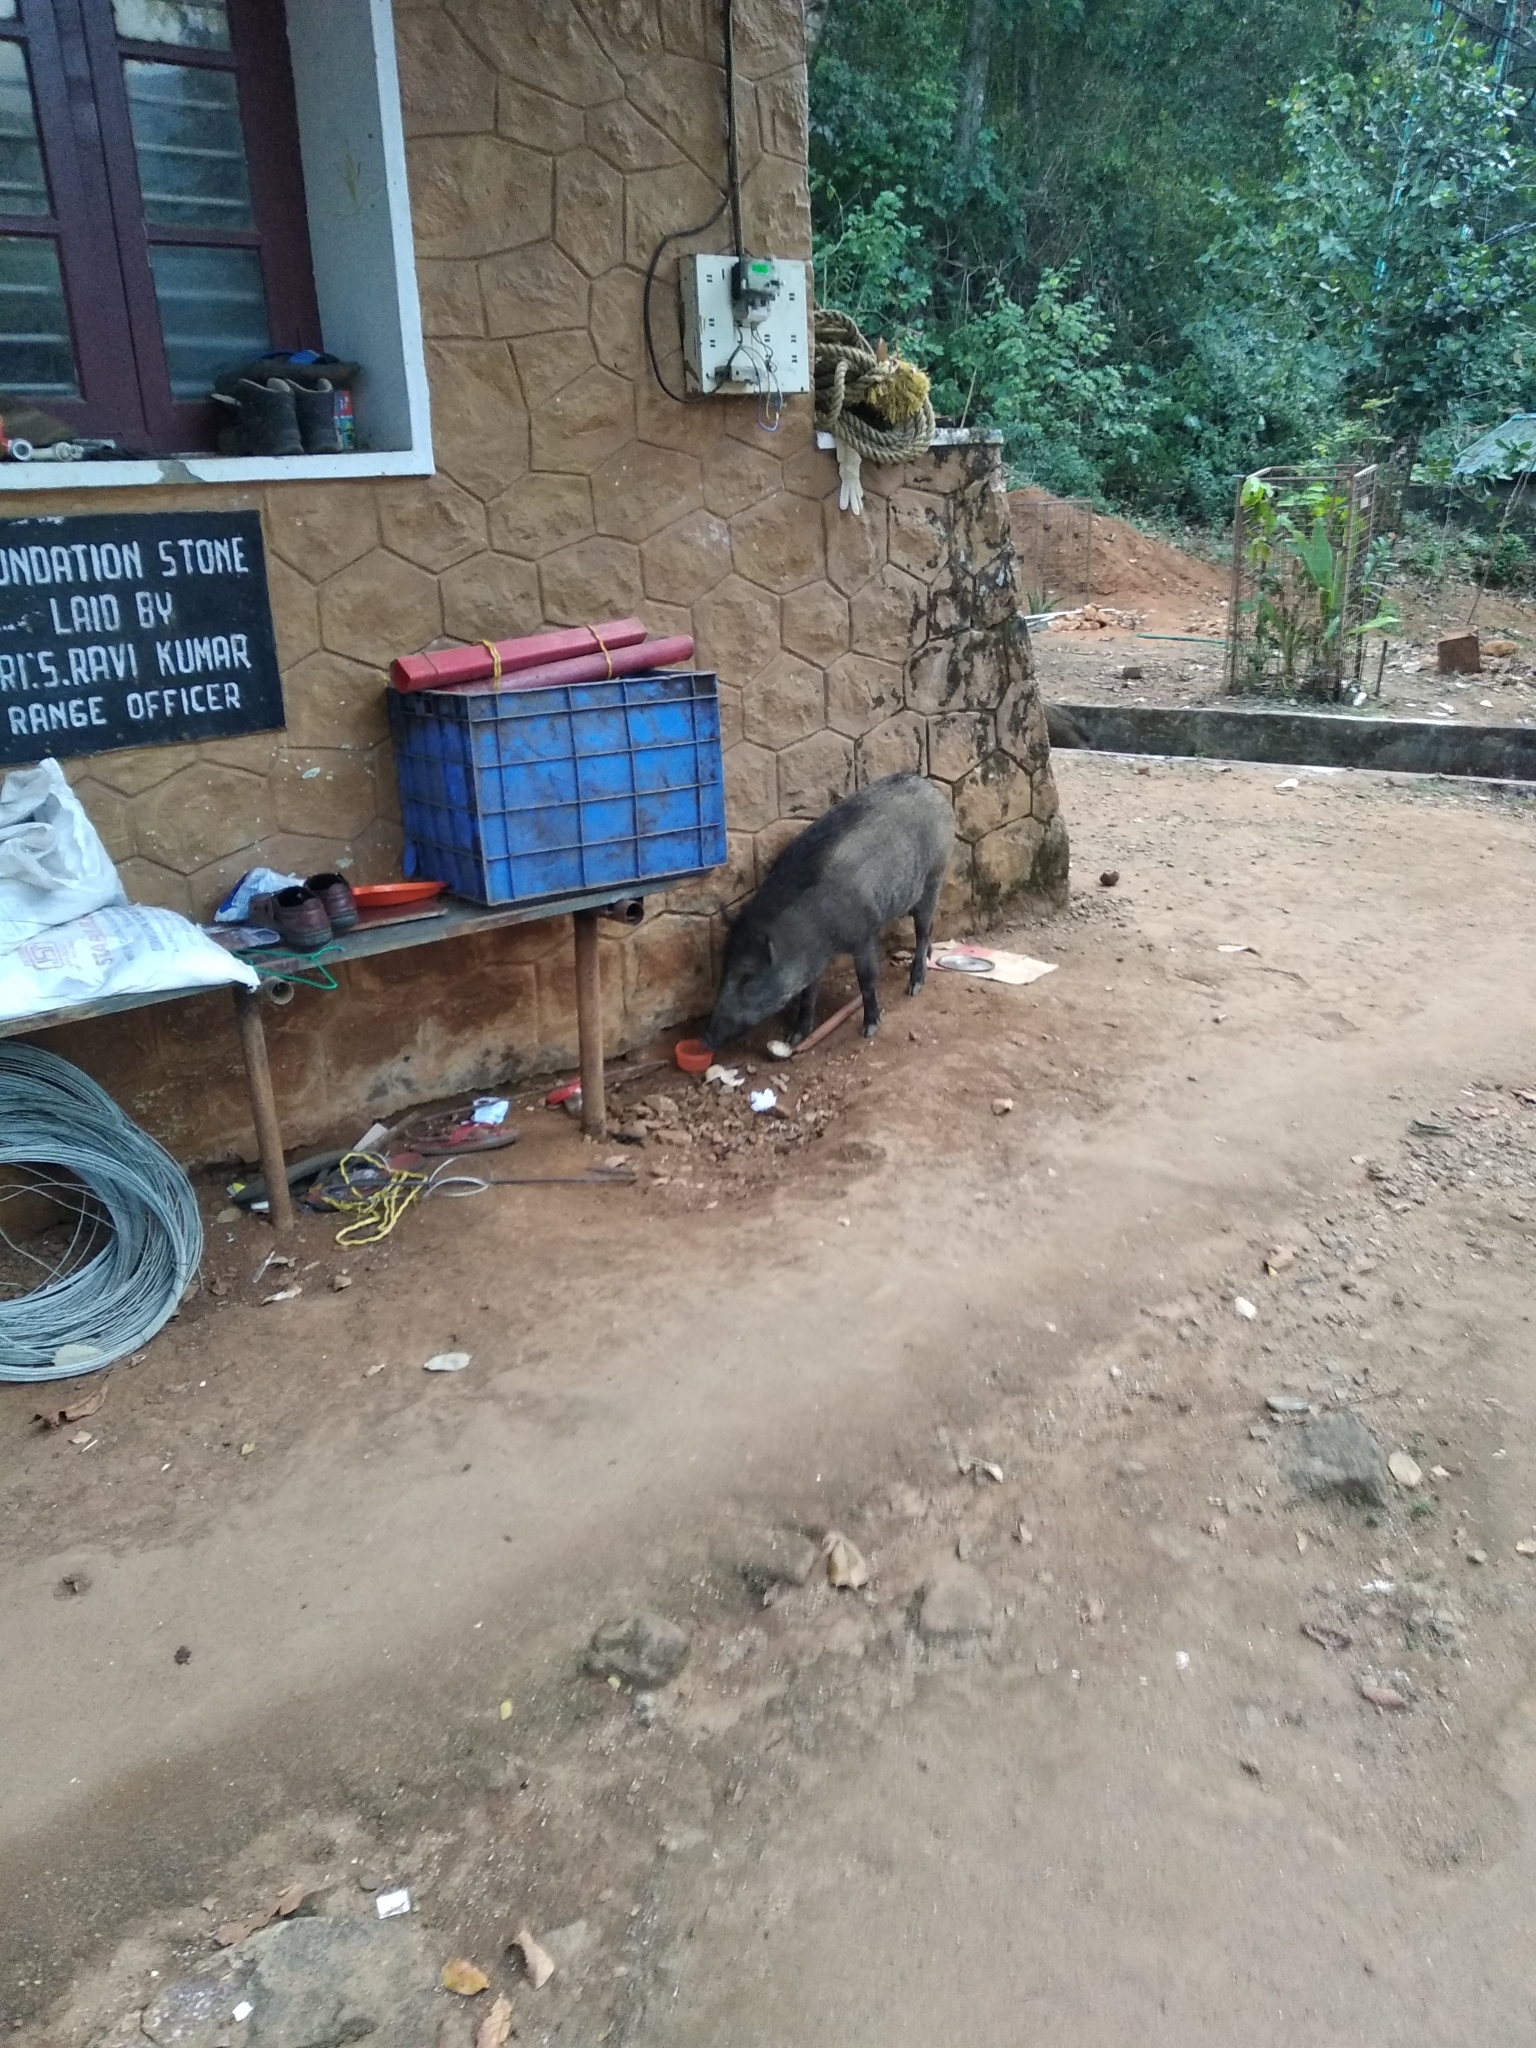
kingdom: Animalia
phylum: Chordata
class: Mammalia
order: Artiodactyla
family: Suidae
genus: Sus
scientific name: Sus scrofa
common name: Wild boar
